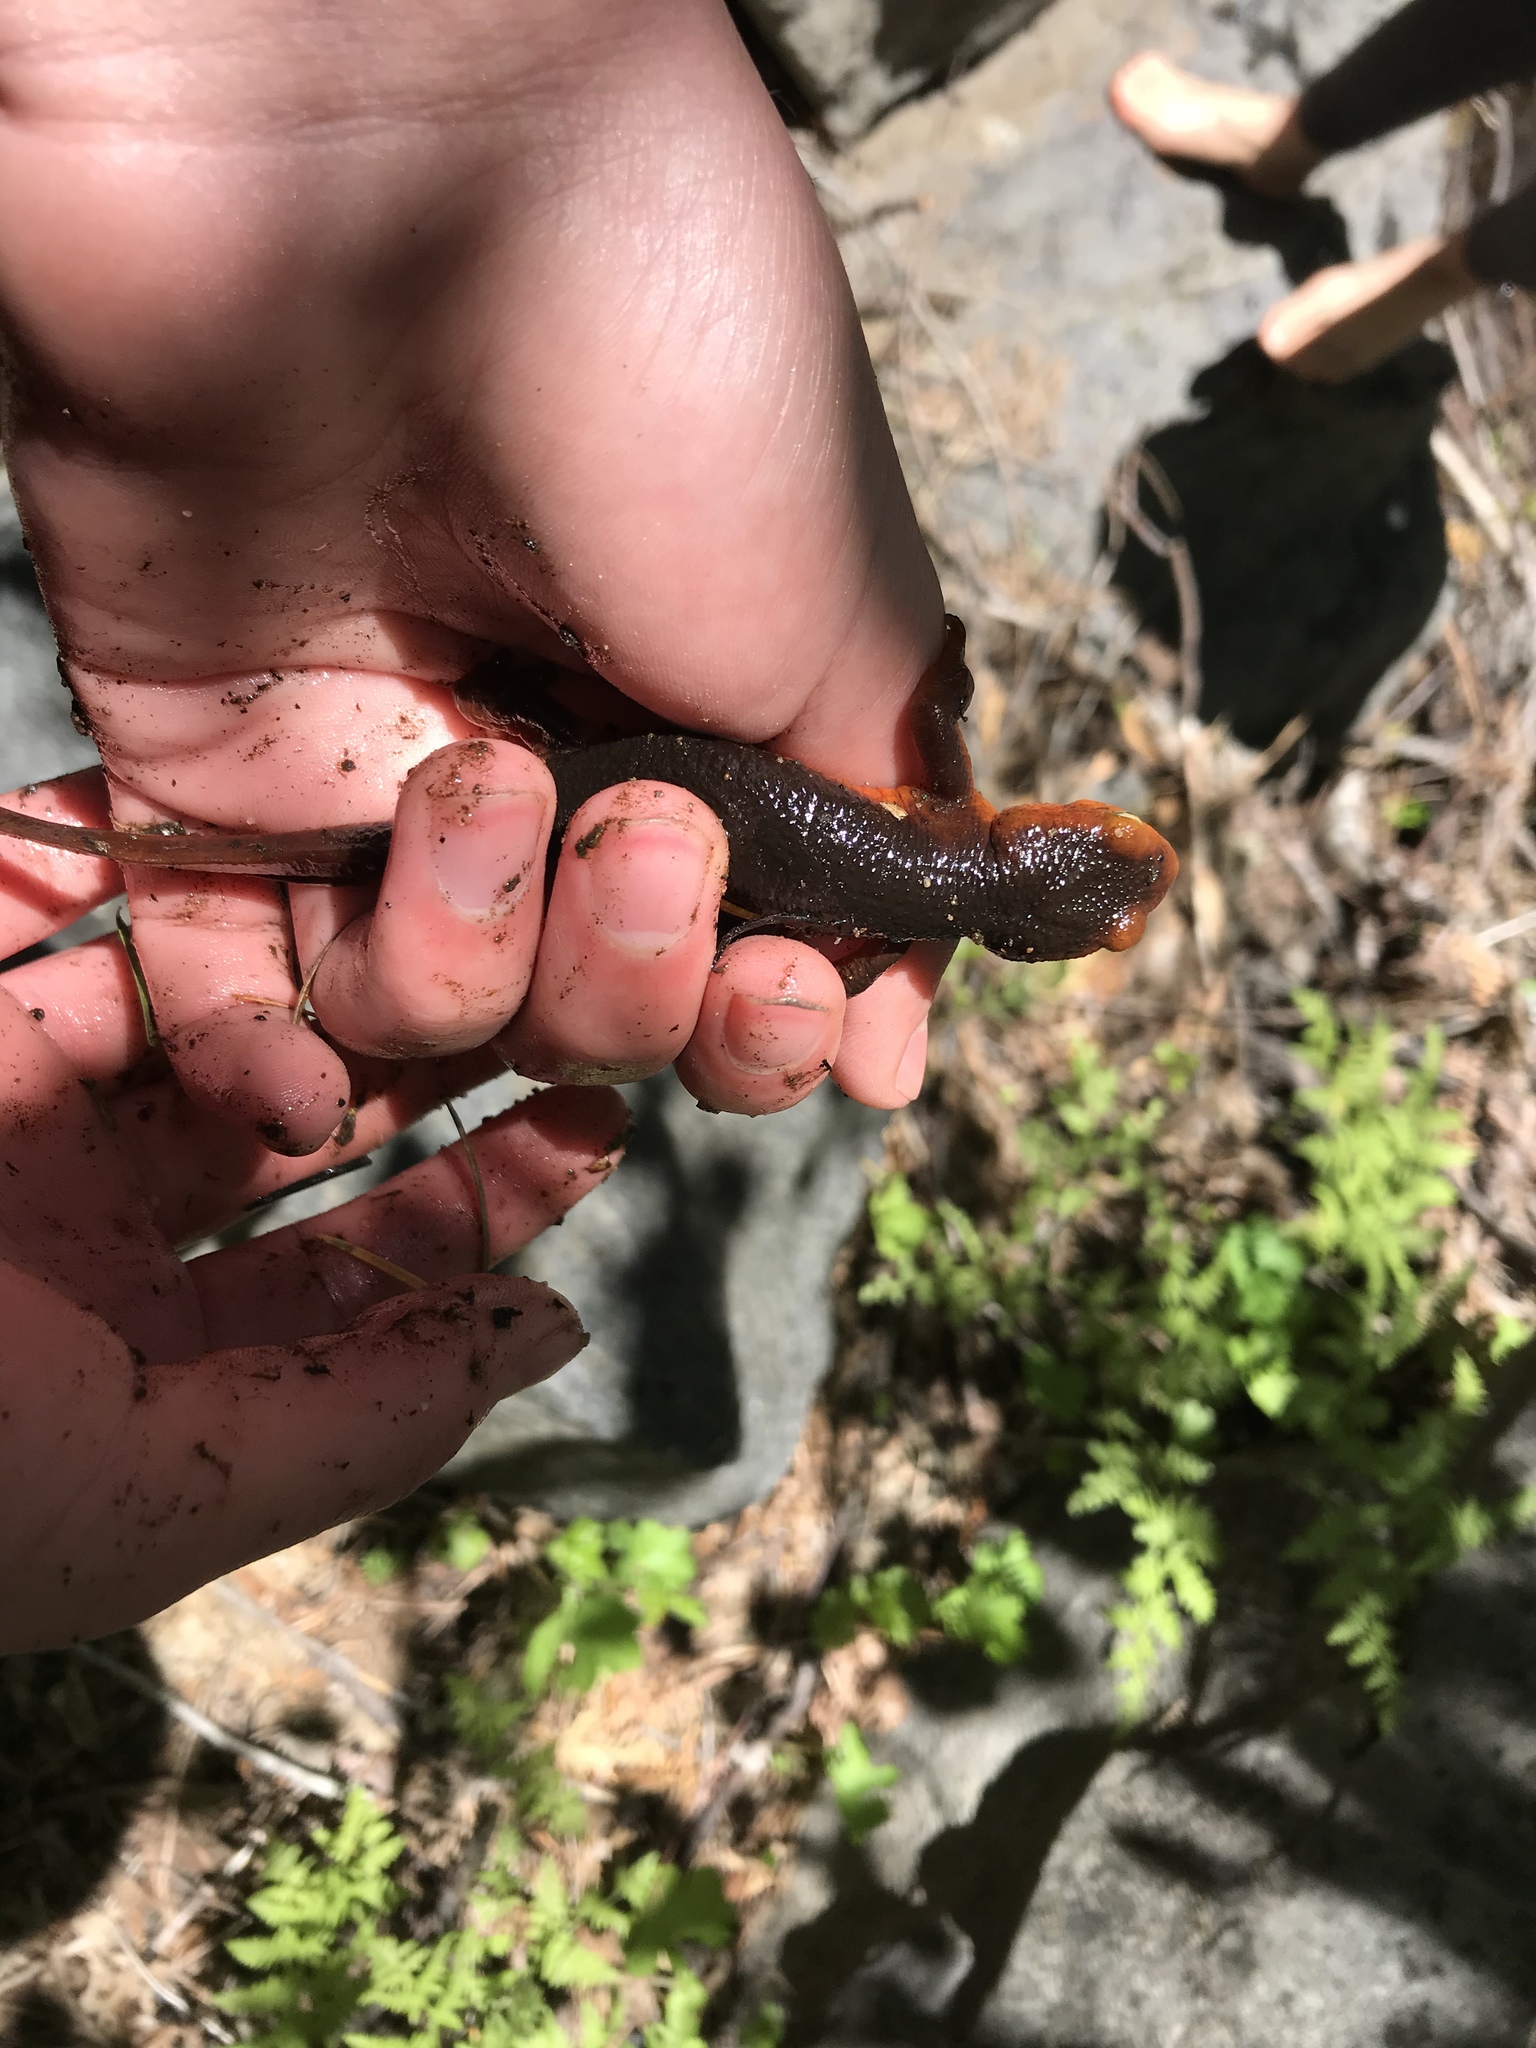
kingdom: Animalia
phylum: Chordata
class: Amphibia
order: Caudata
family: Salamandridae
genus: Taricha
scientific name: Taricha sierrae
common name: Sierra newt
